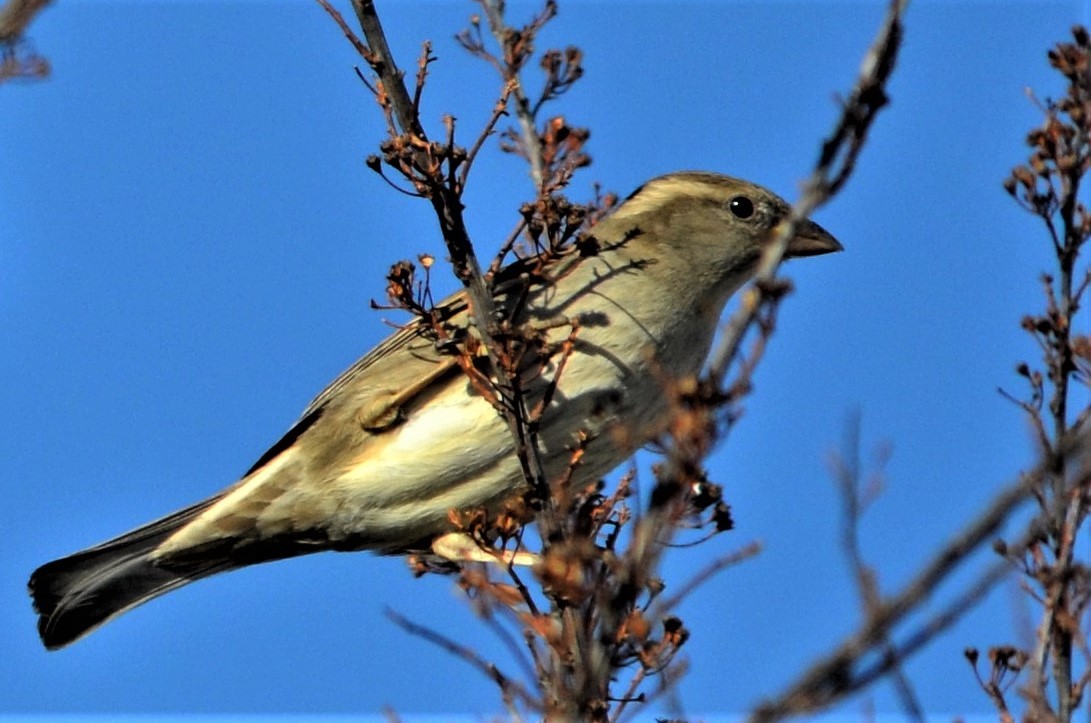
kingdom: Animalia
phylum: Chordata
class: Aves
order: Passeriformes
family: Passeridae
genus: Passer
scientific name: Passer domesticus
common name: House sparrow
